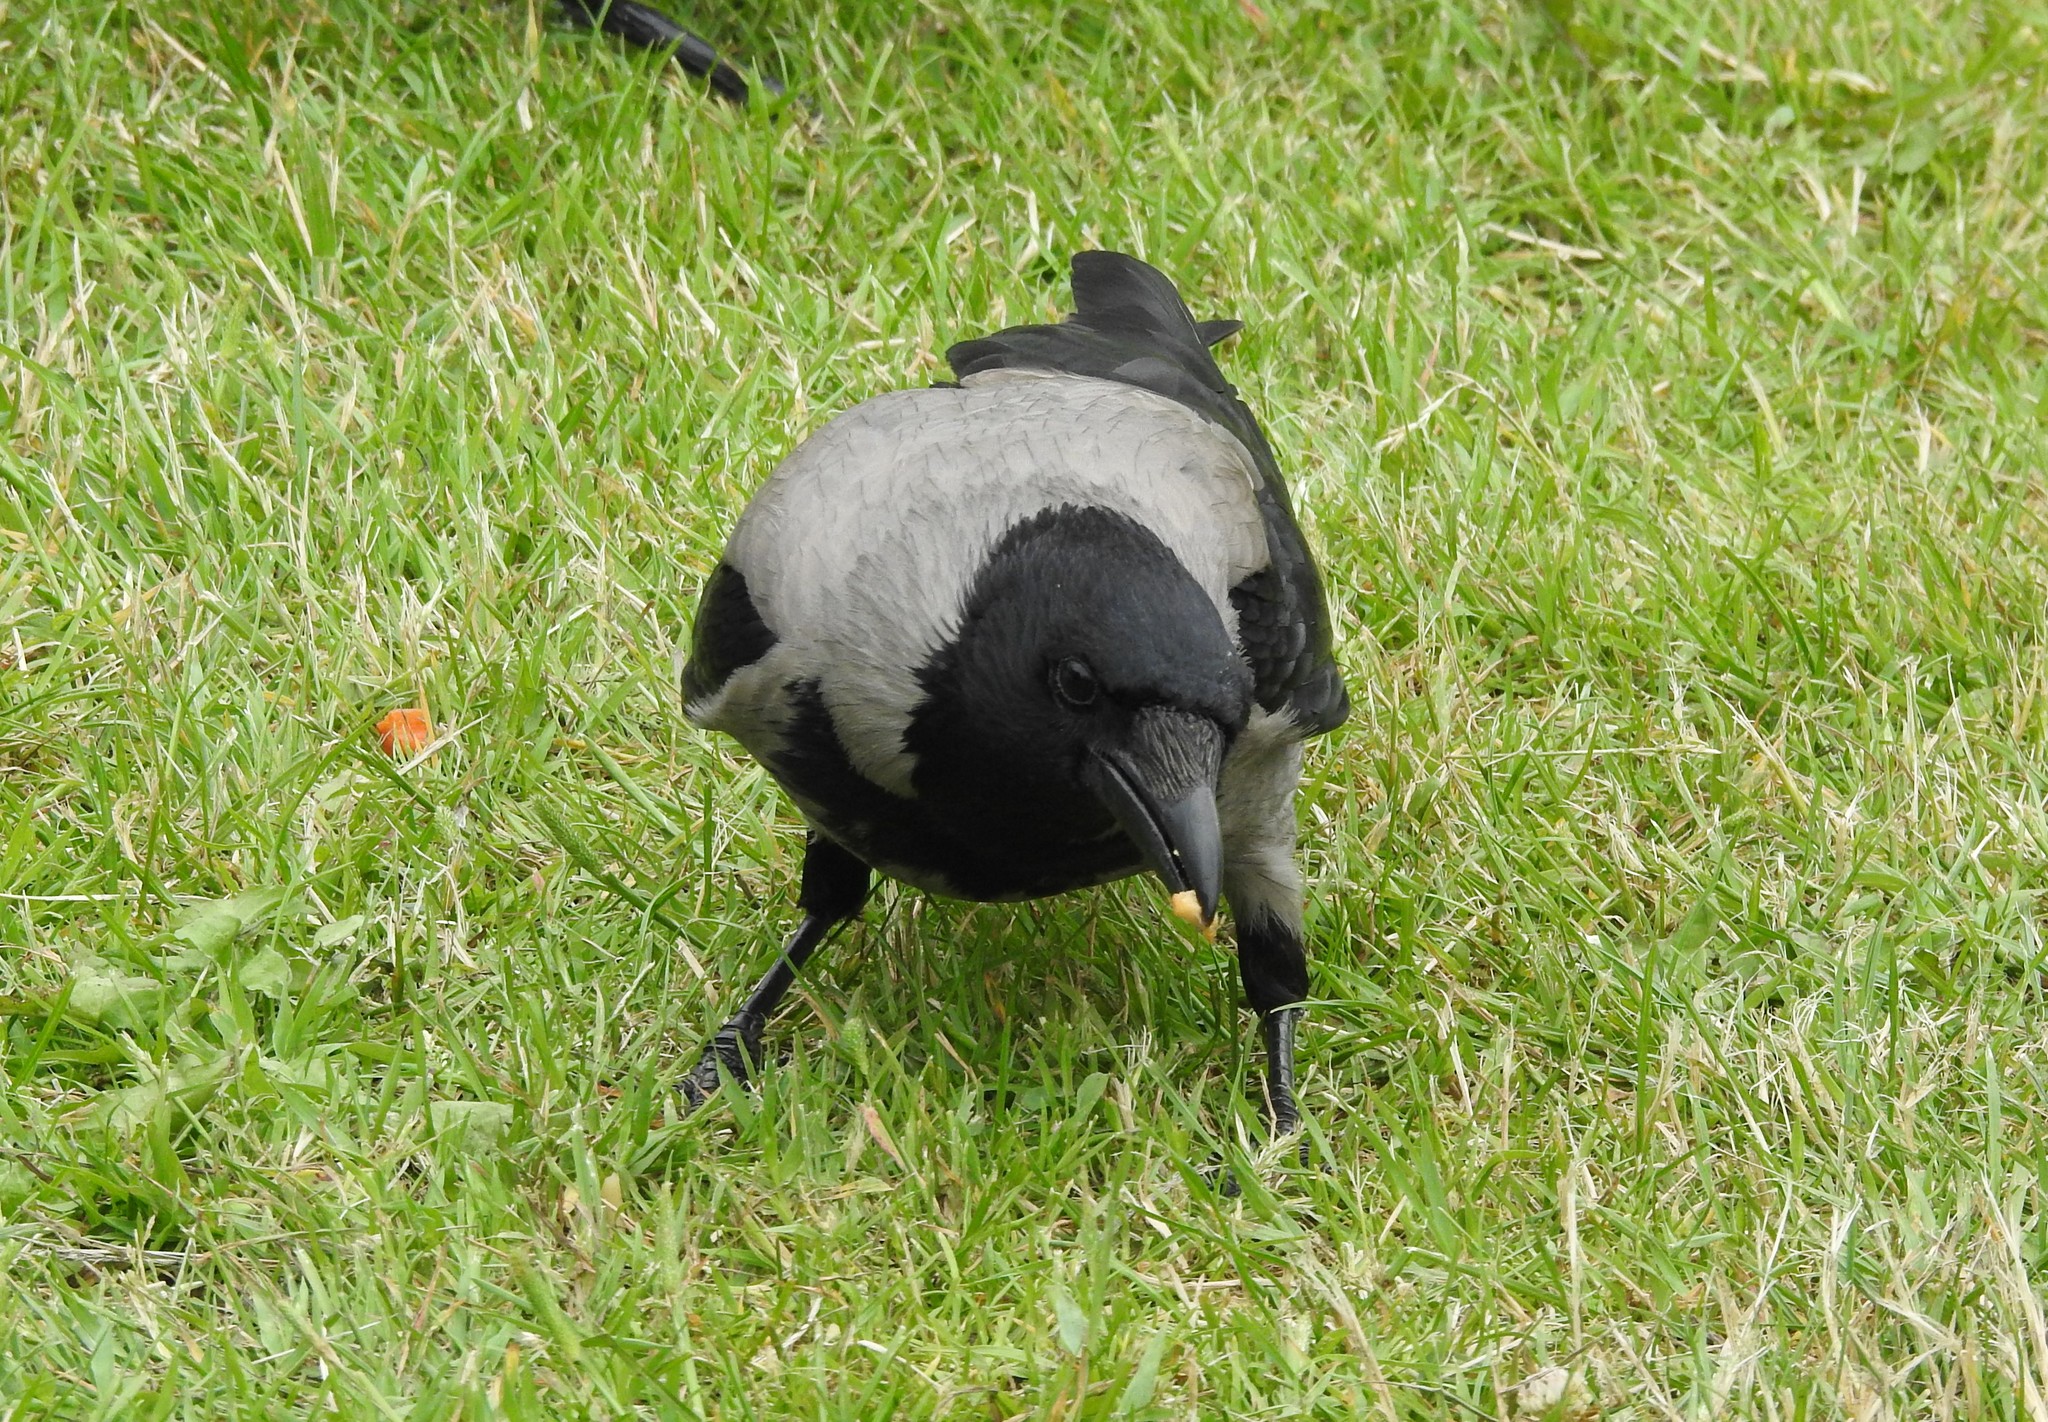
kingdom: Animalia
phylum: Chordata
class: Aves
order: Passeriformes
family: Corvidae
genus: Corvus
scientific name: Corvus cornix
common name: Hooded crow
